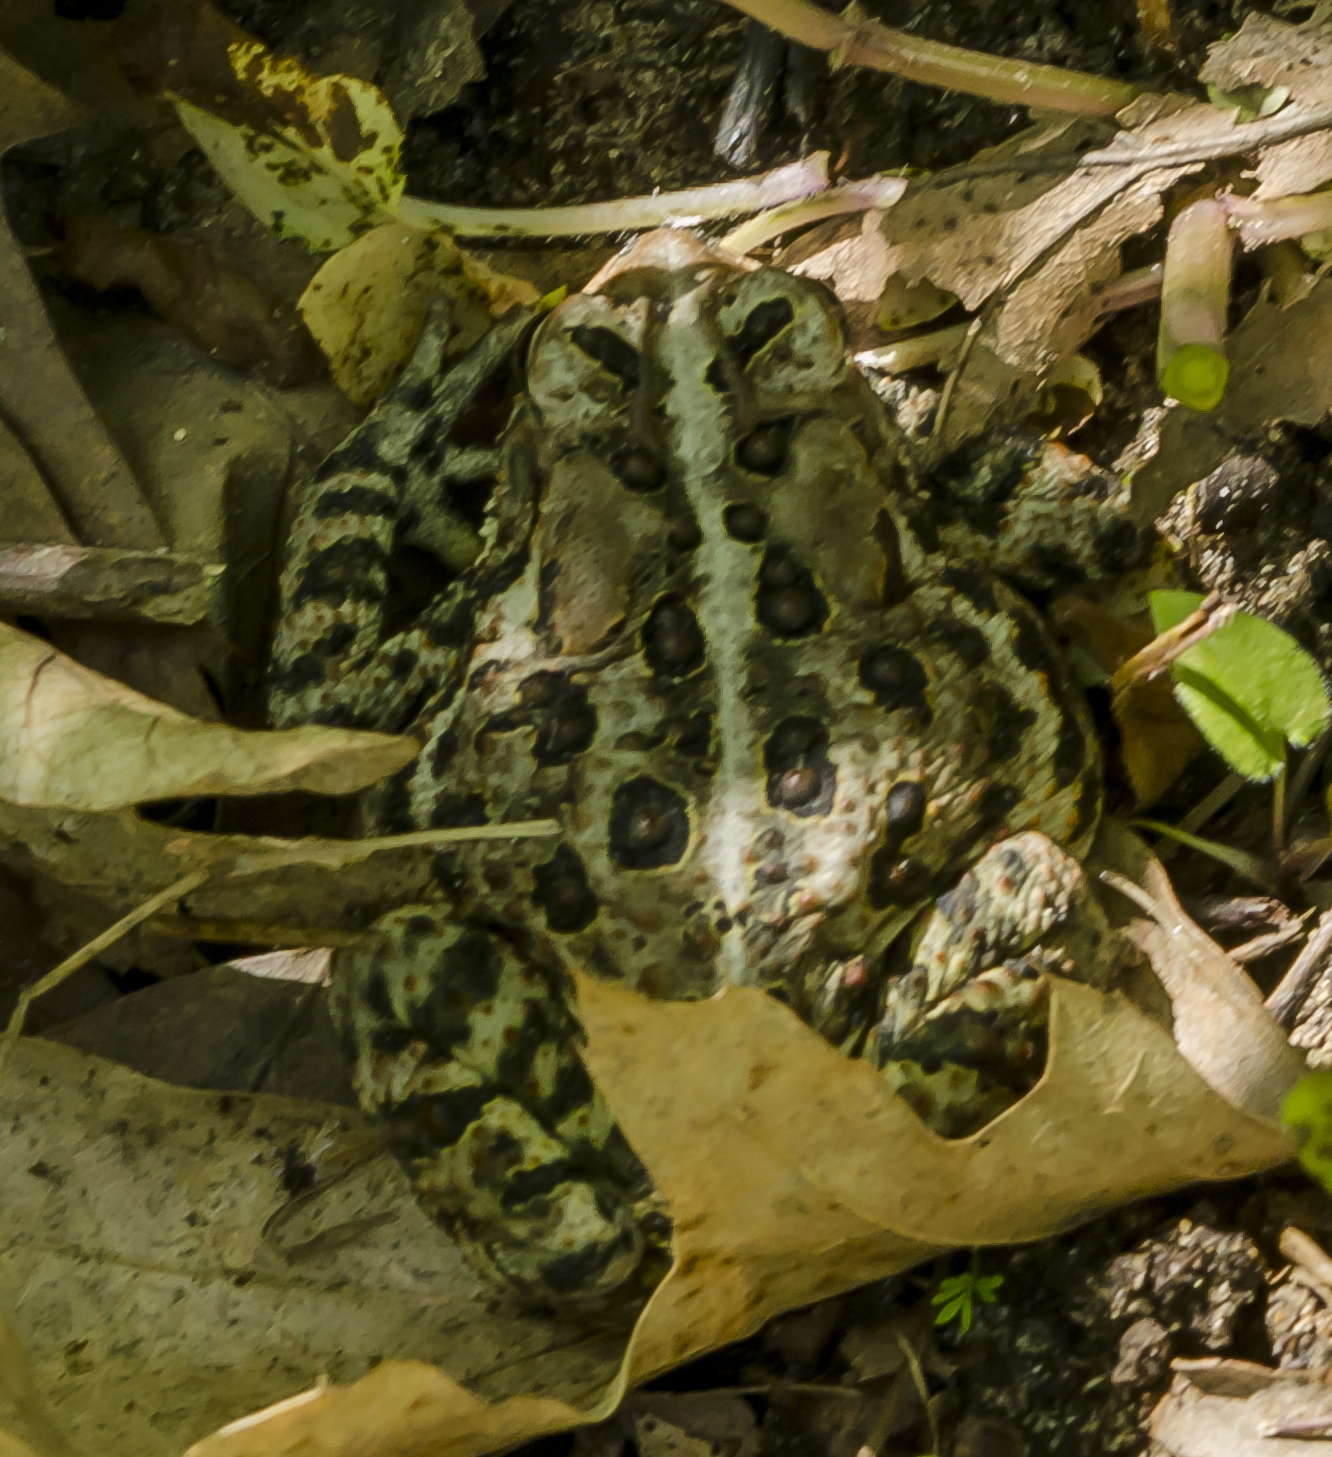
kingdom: Animalia
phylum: Chordata
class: Amphibia
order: Anura
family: Bufonidae
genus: Anaxyrus
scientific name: Anaxyrus americanus
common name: American toad
